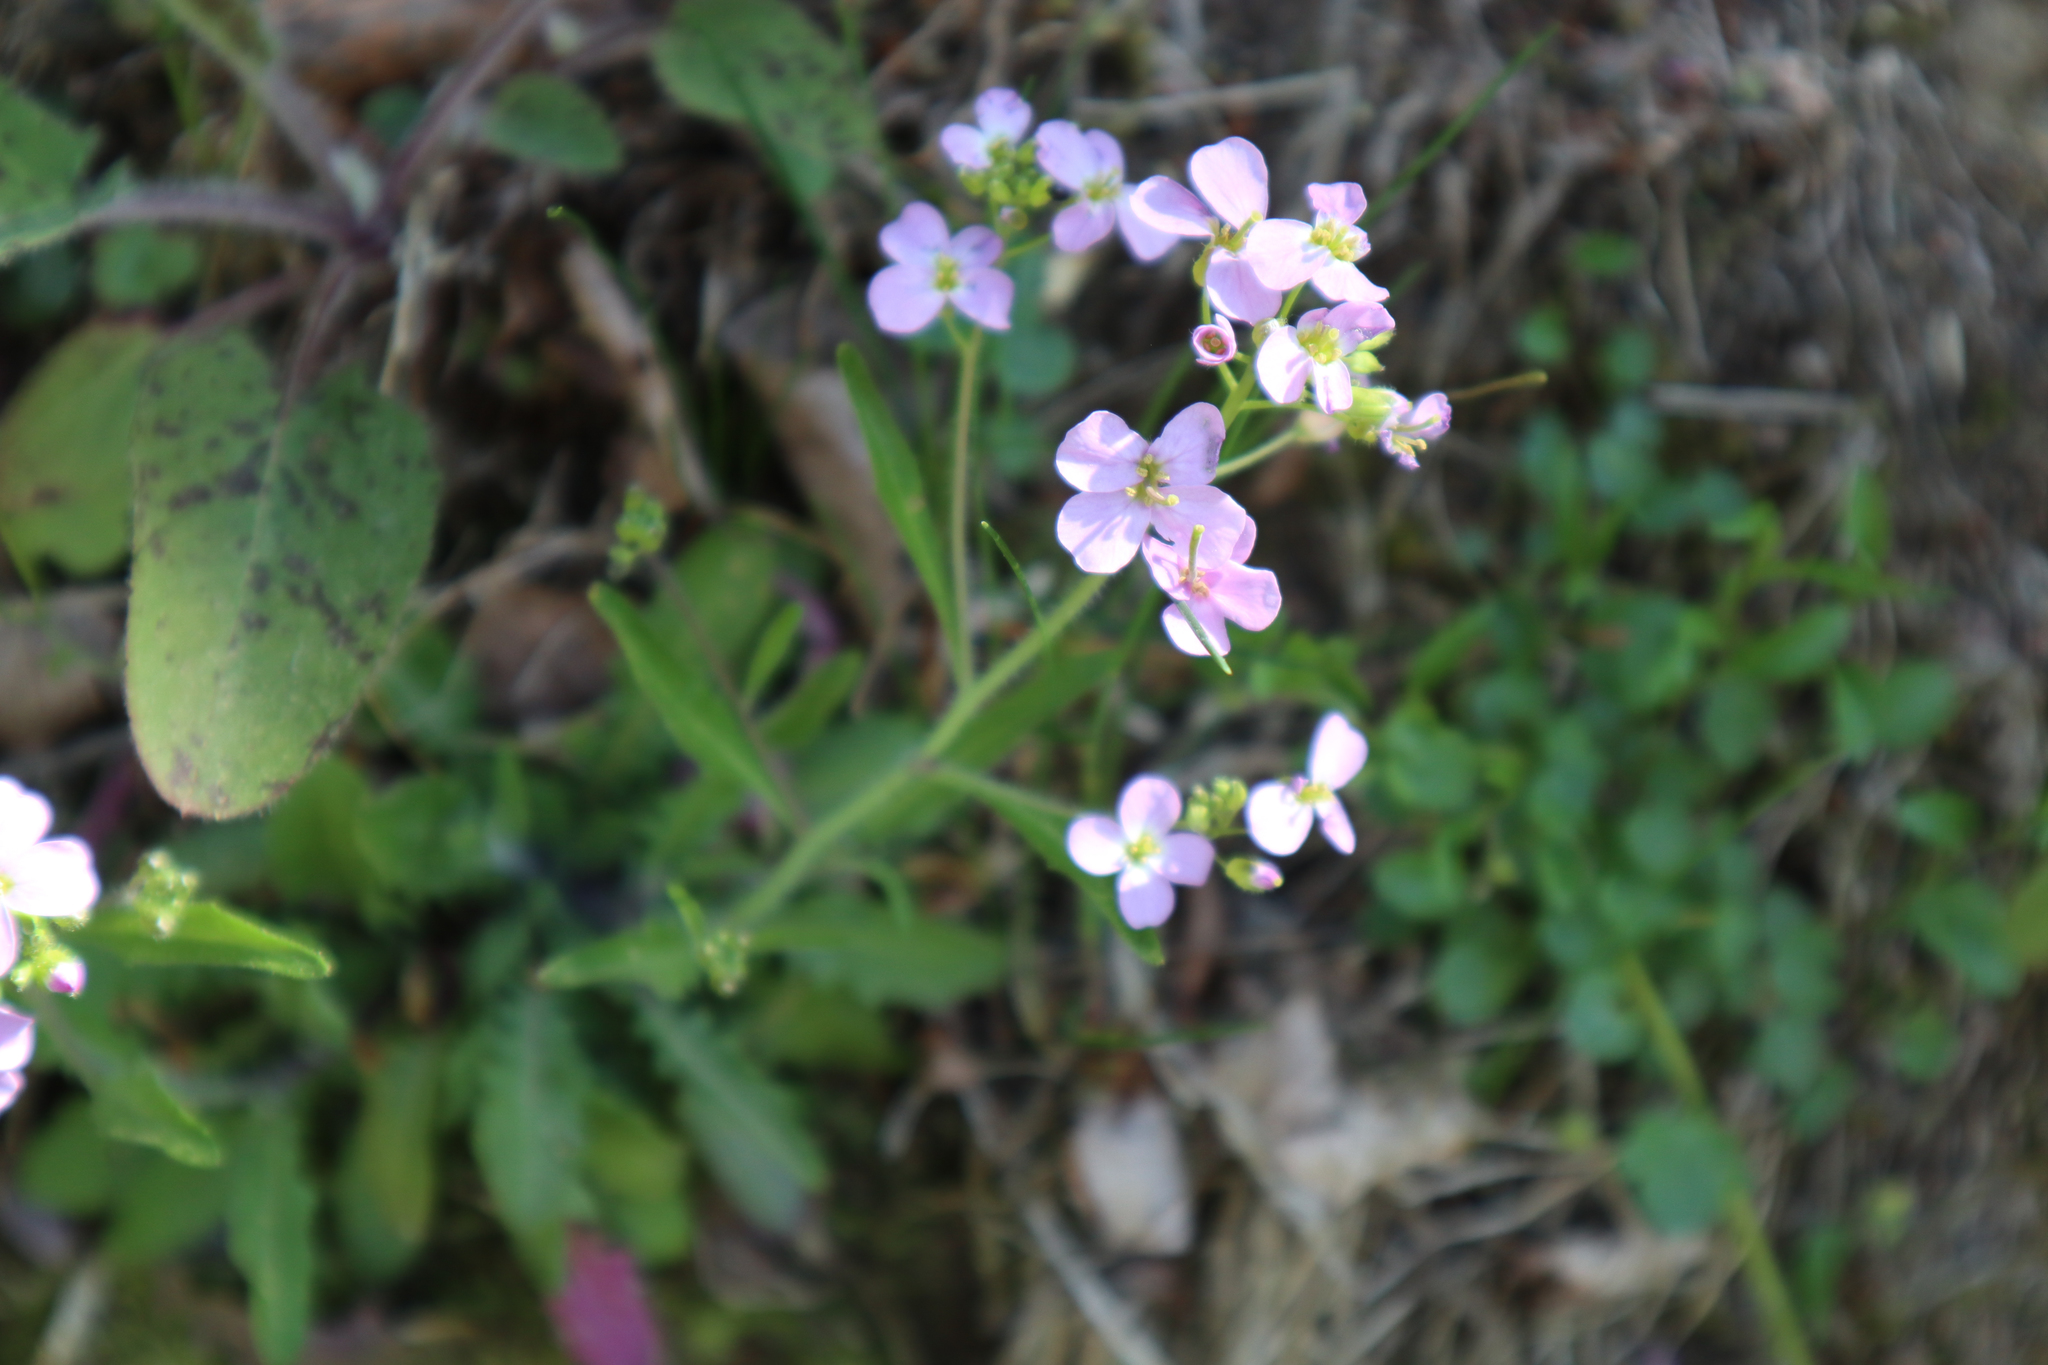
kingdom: Plantae
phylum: Tracheophyta
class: Magnoliopsida
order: Brassicales
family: Brassicaceae
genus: Arabidopsis
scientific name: Arabidopsis arenosa
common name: Sand rock-cress
